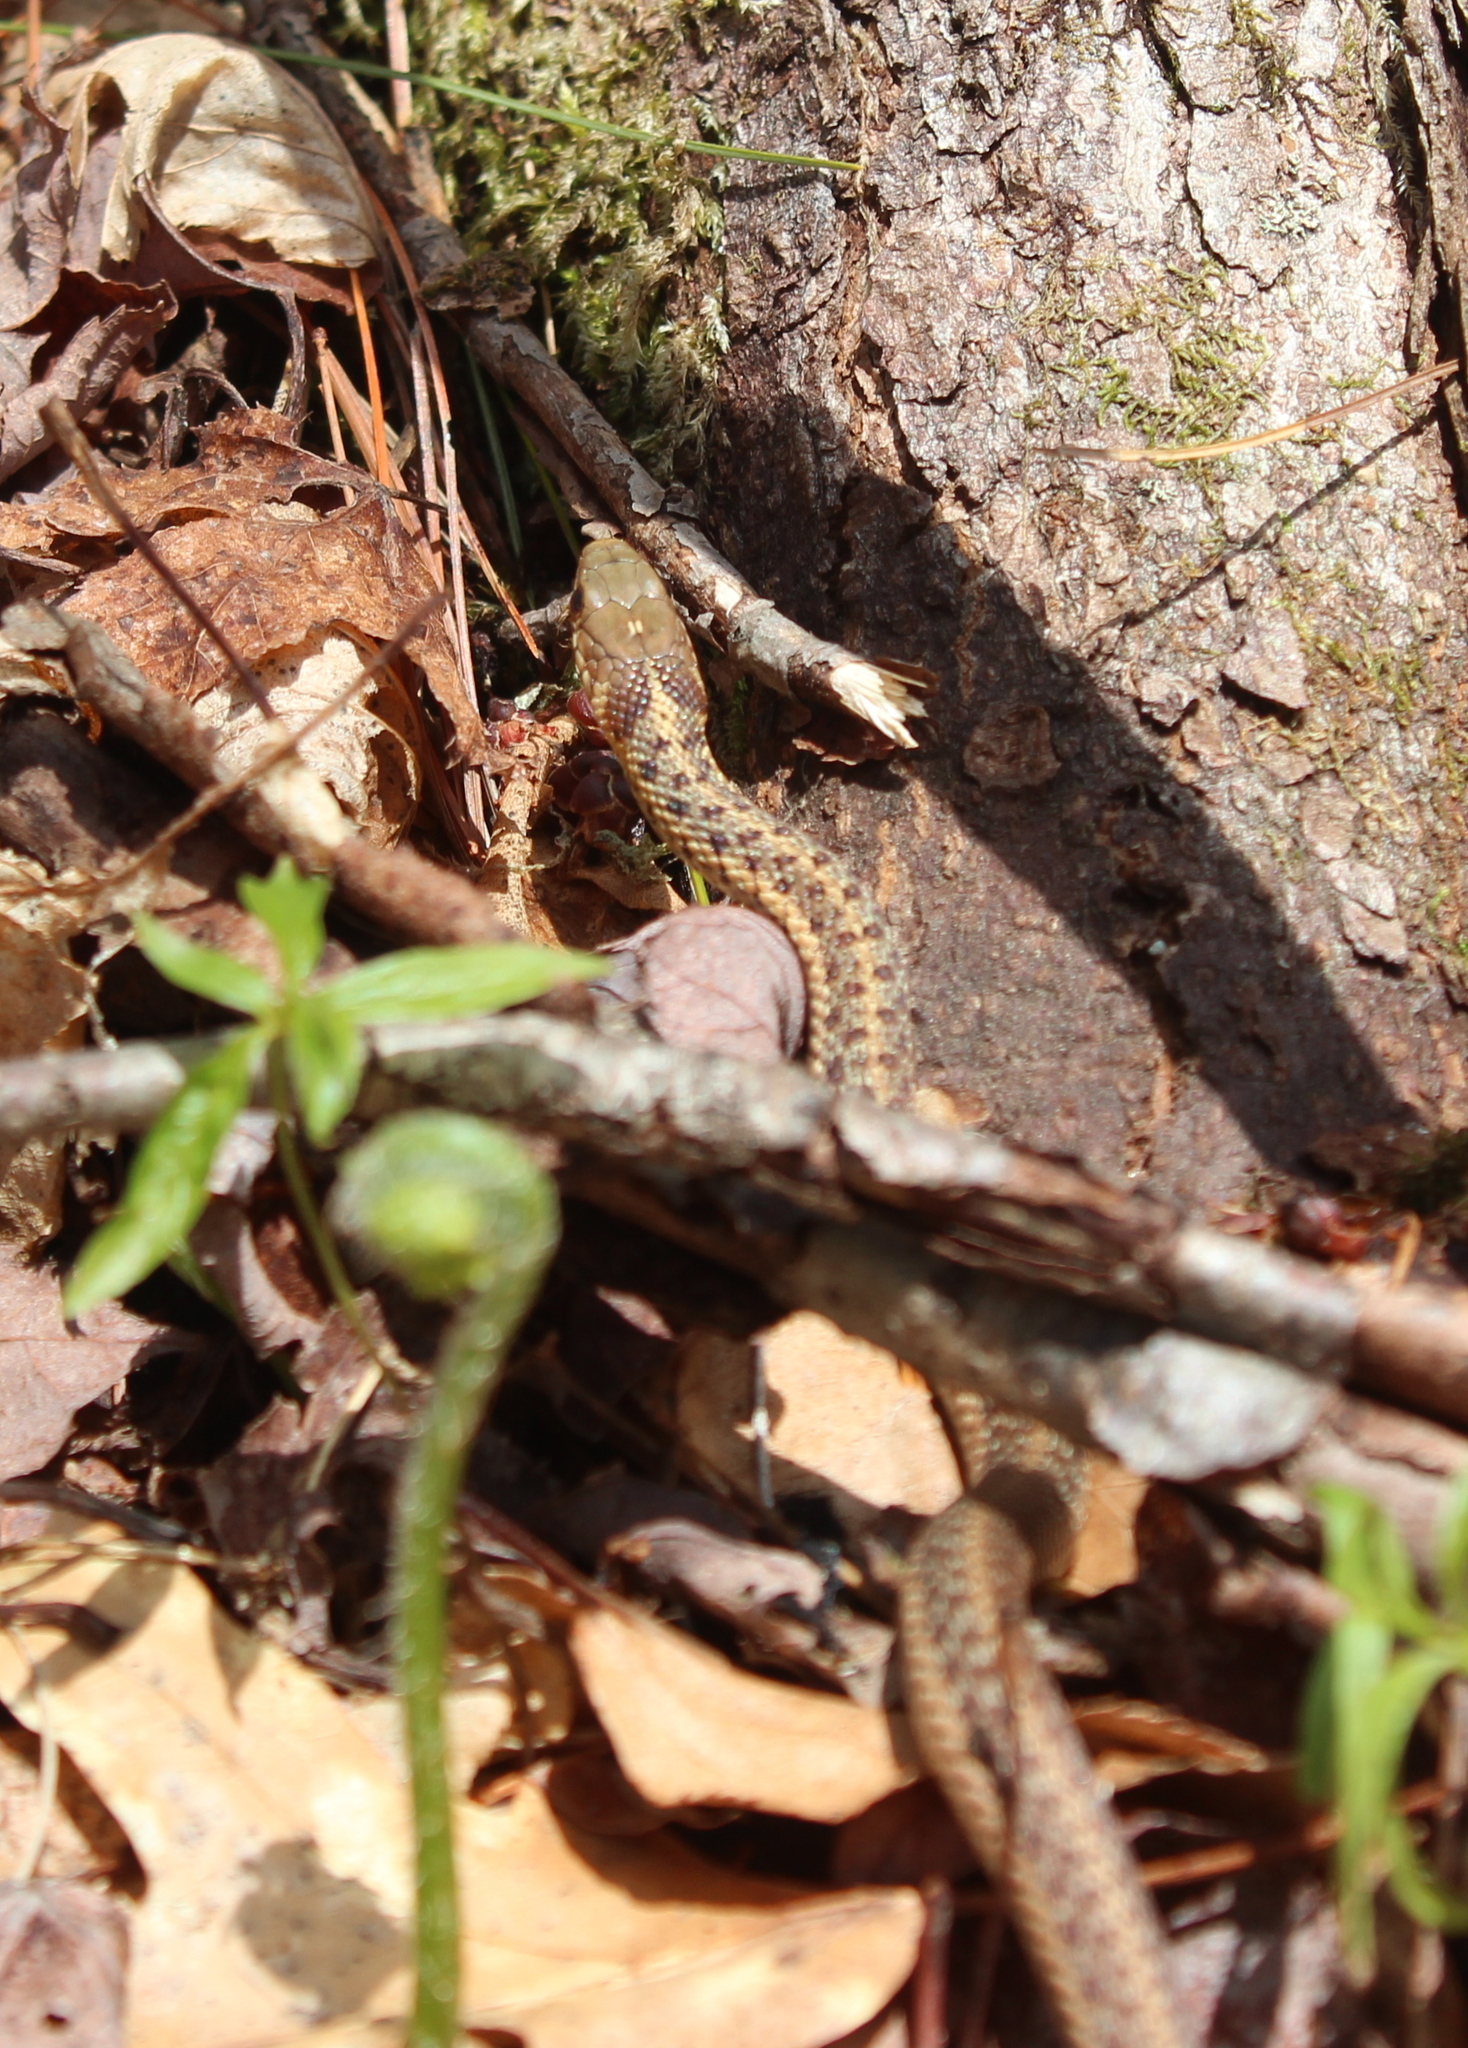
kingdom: Animalia
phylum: Chordata
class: Squamata
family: Colubridae
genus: Thamnophis
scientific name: Thamnophis sirtalis
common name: Common garter snake
